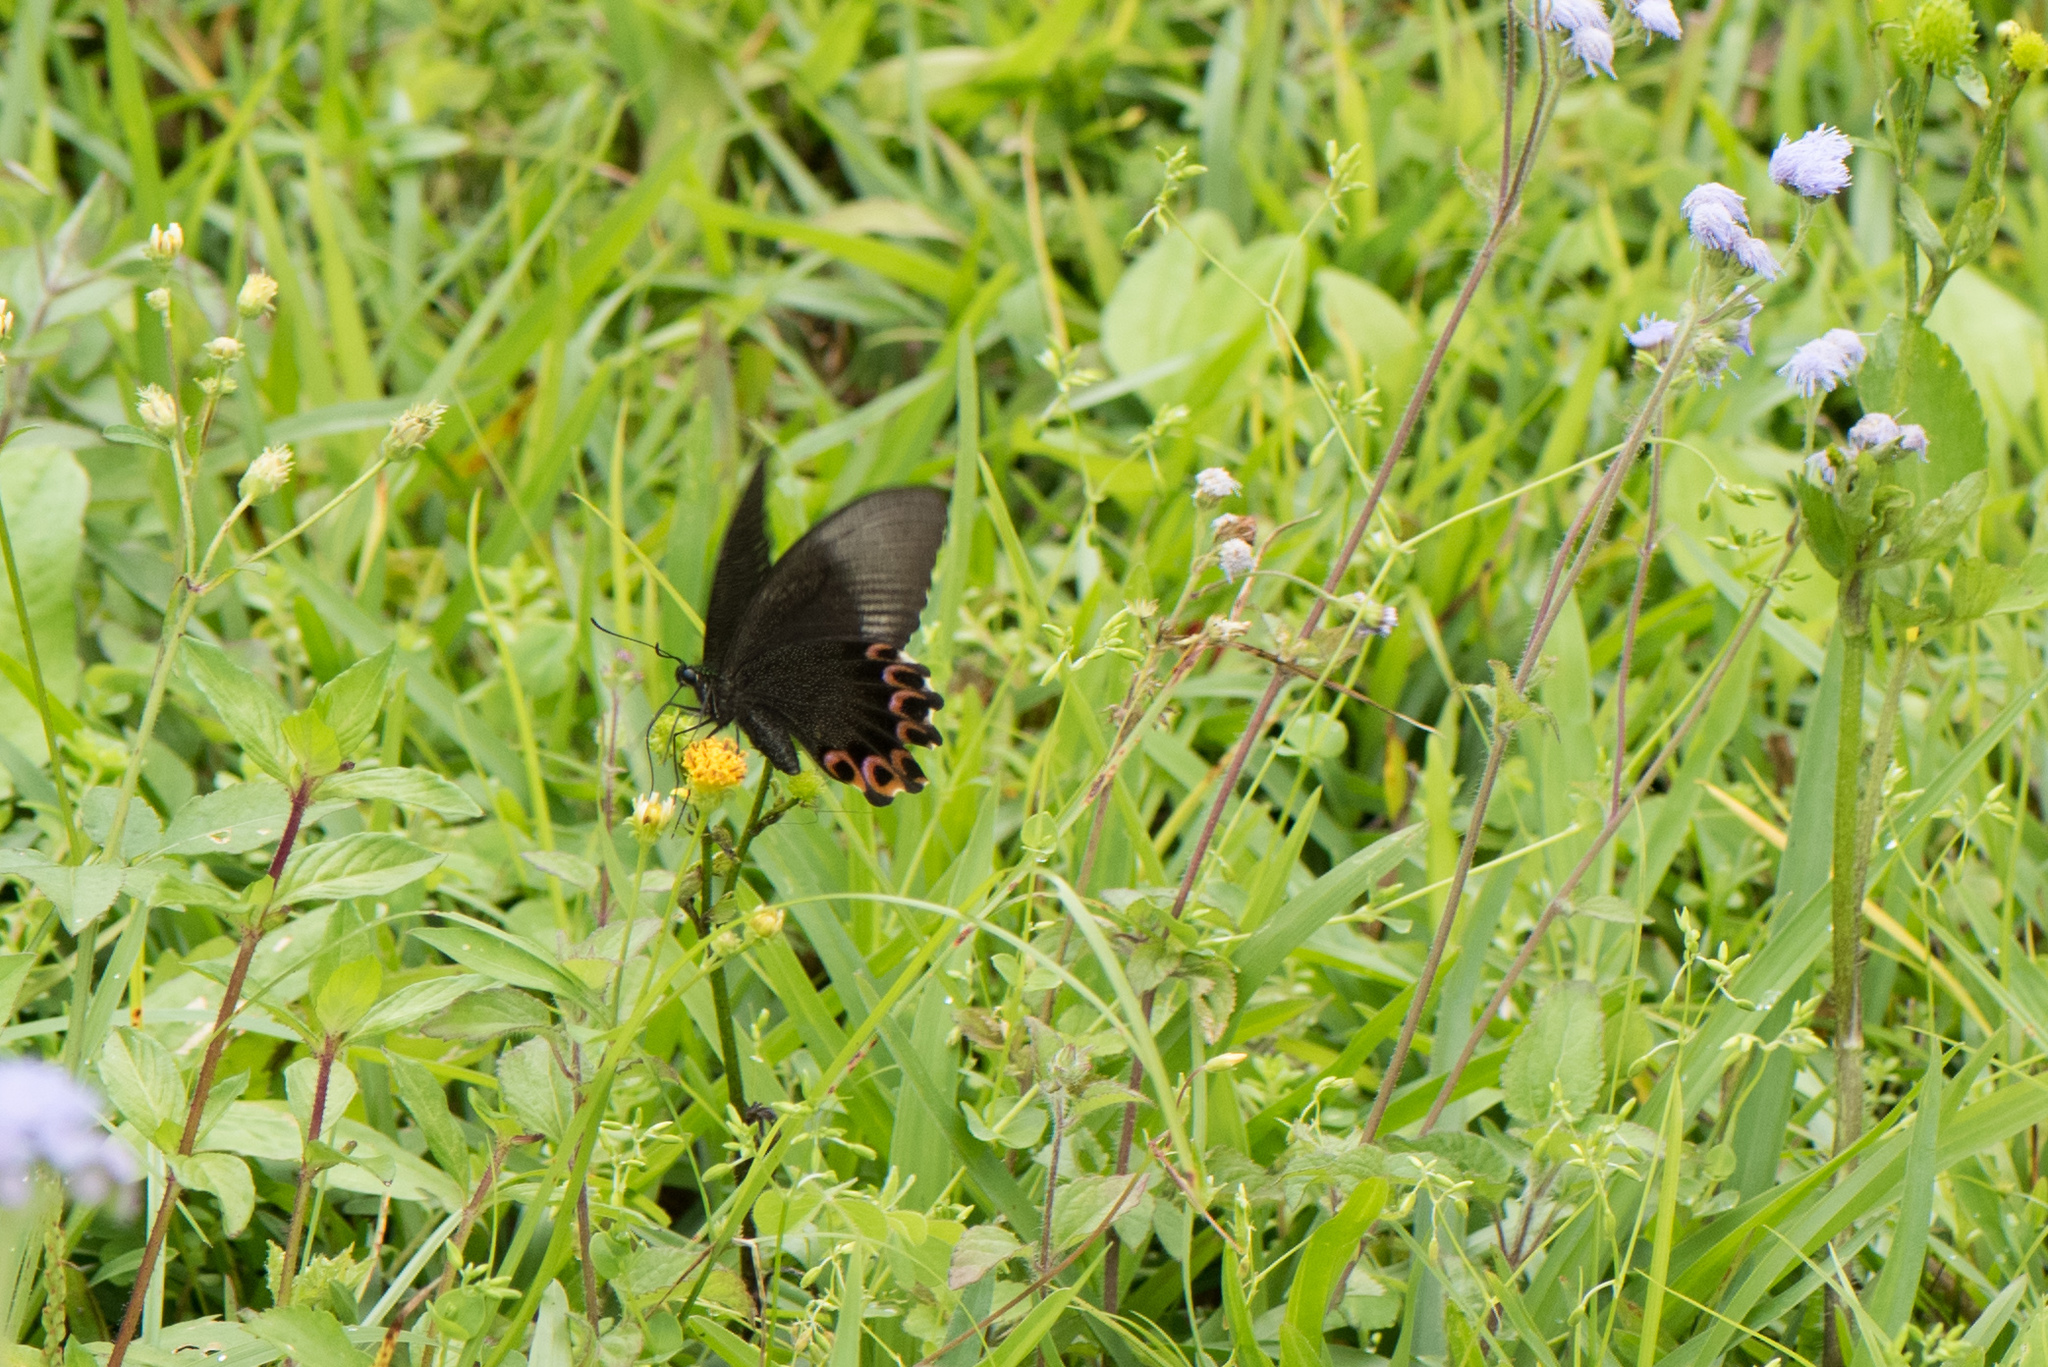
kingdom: Animalia
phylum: Arthropoda
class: Insecta
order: Lepidoptera
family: Papilionidae
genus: Papilio
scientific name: Papilio hermosanus
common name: Taiwanese glazed swallowtail
